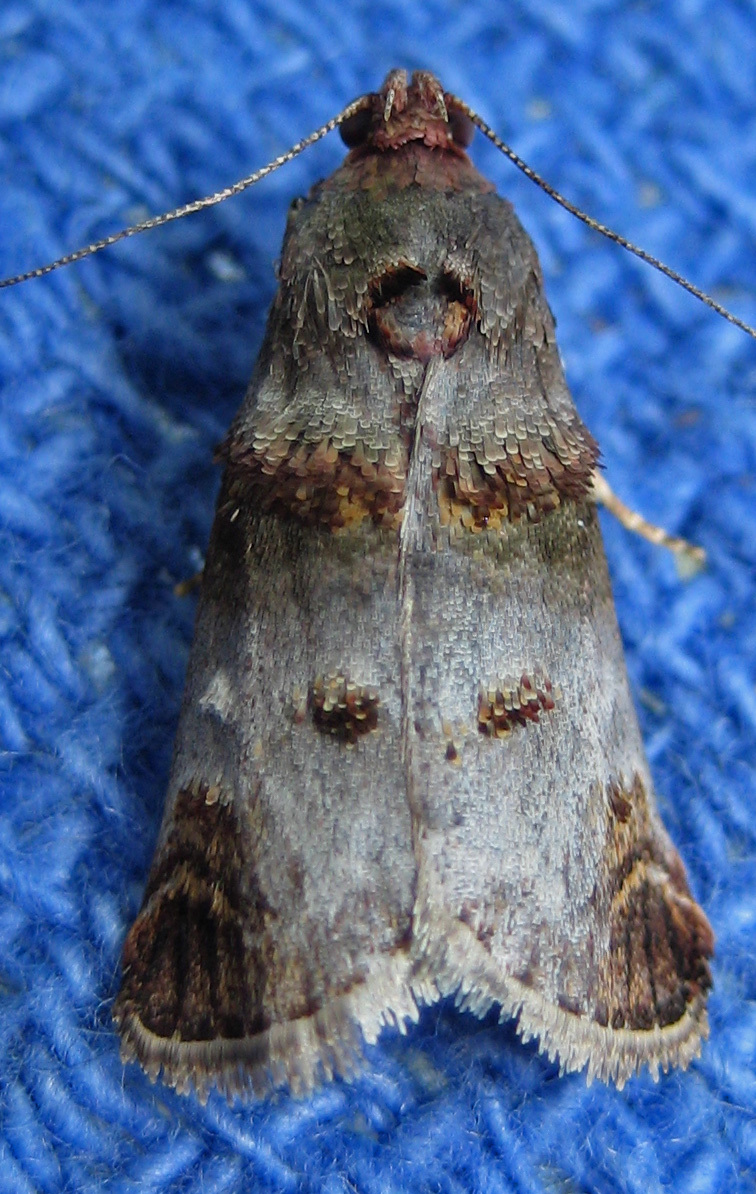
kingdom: Animalia
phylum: Arthropoda
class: Insecta
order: Lepidoptera
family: Pyralidae
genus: Oneida
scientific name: Oneida lunulalis
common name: Orange-tufted oneida moth
